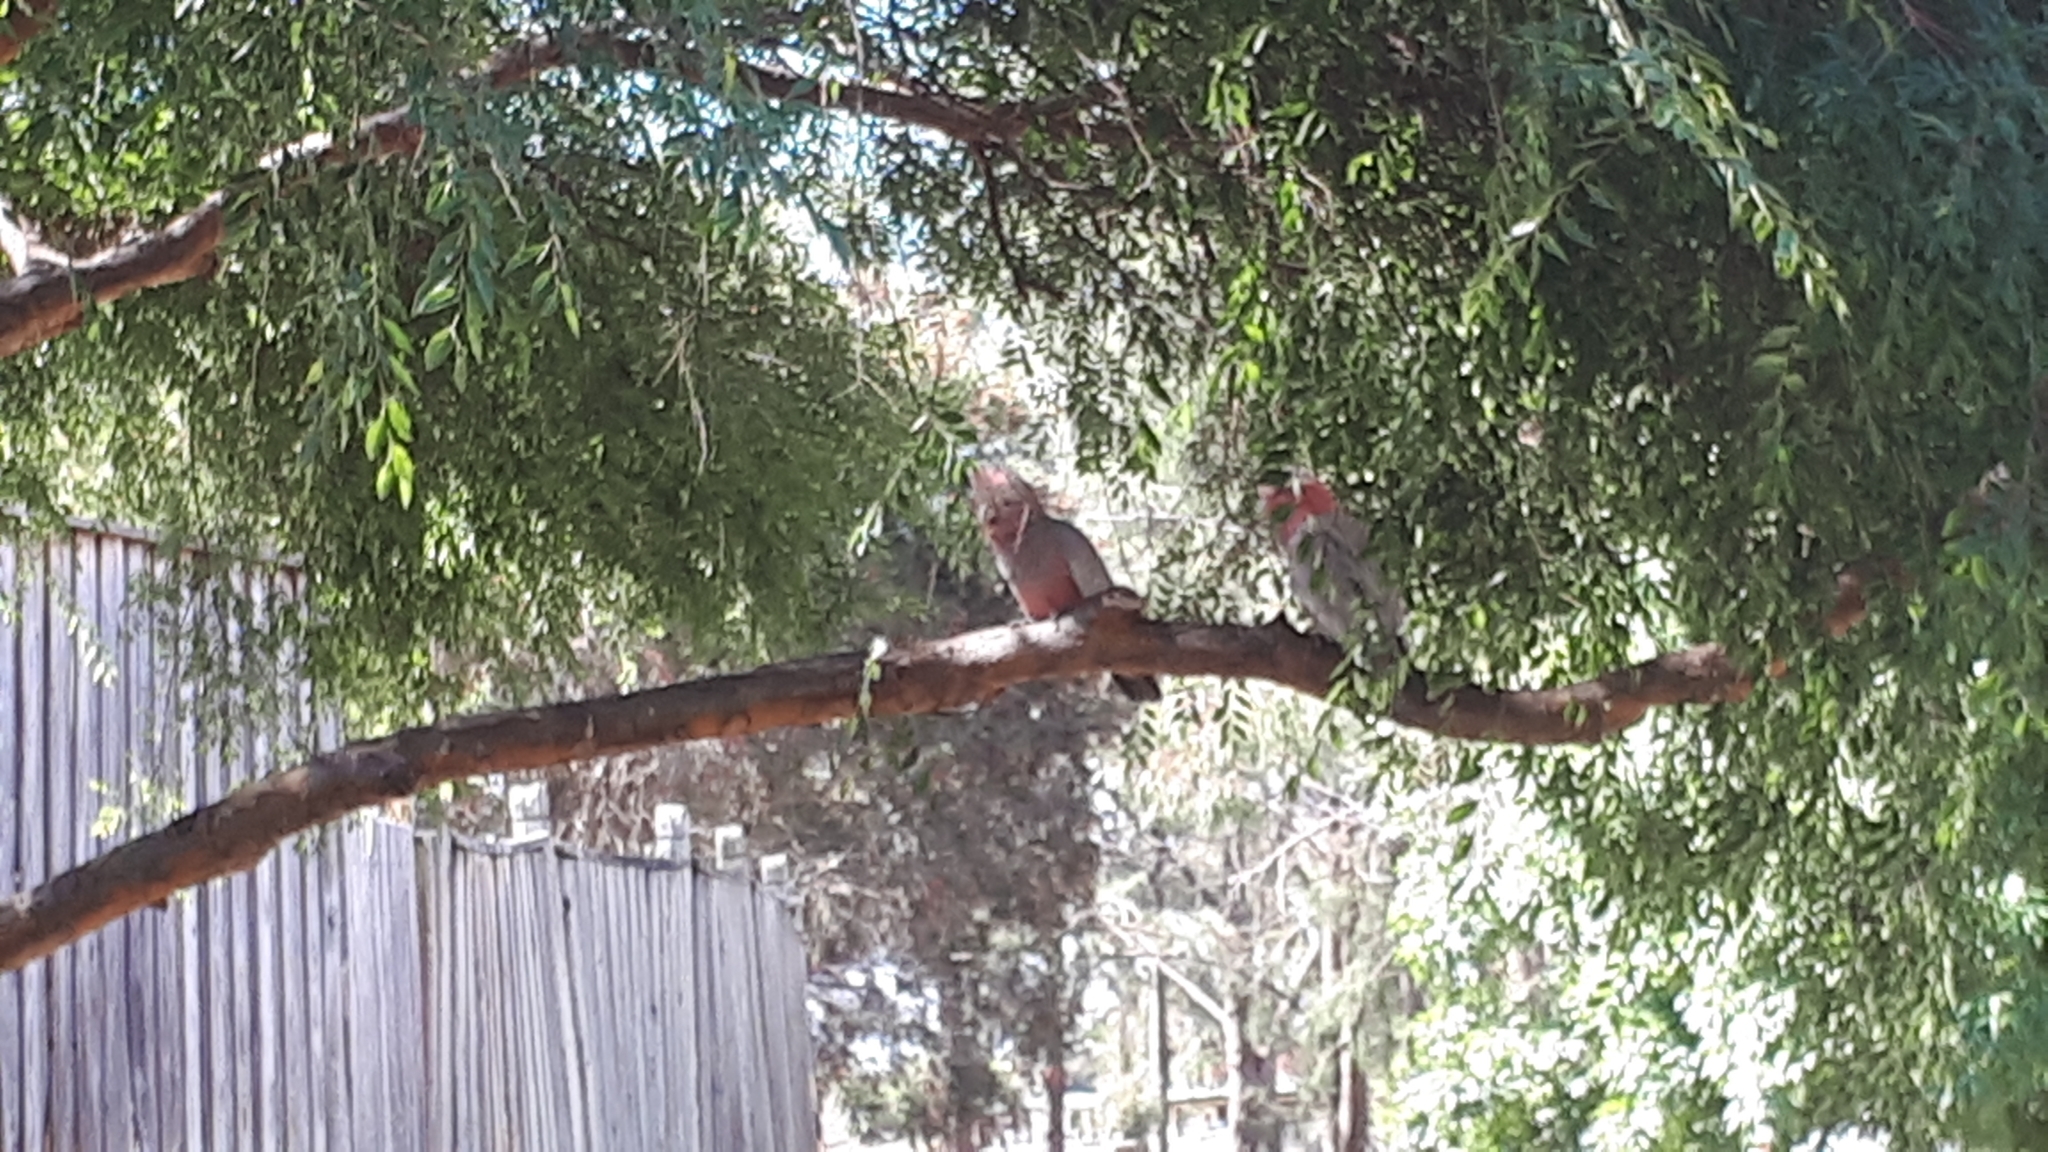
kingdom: Animalia
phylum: Chordata
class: Aves
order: Psittaciformes
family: Psittacidae
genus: Eolophus
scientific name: Eolophus roseicapilla
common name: Galah
